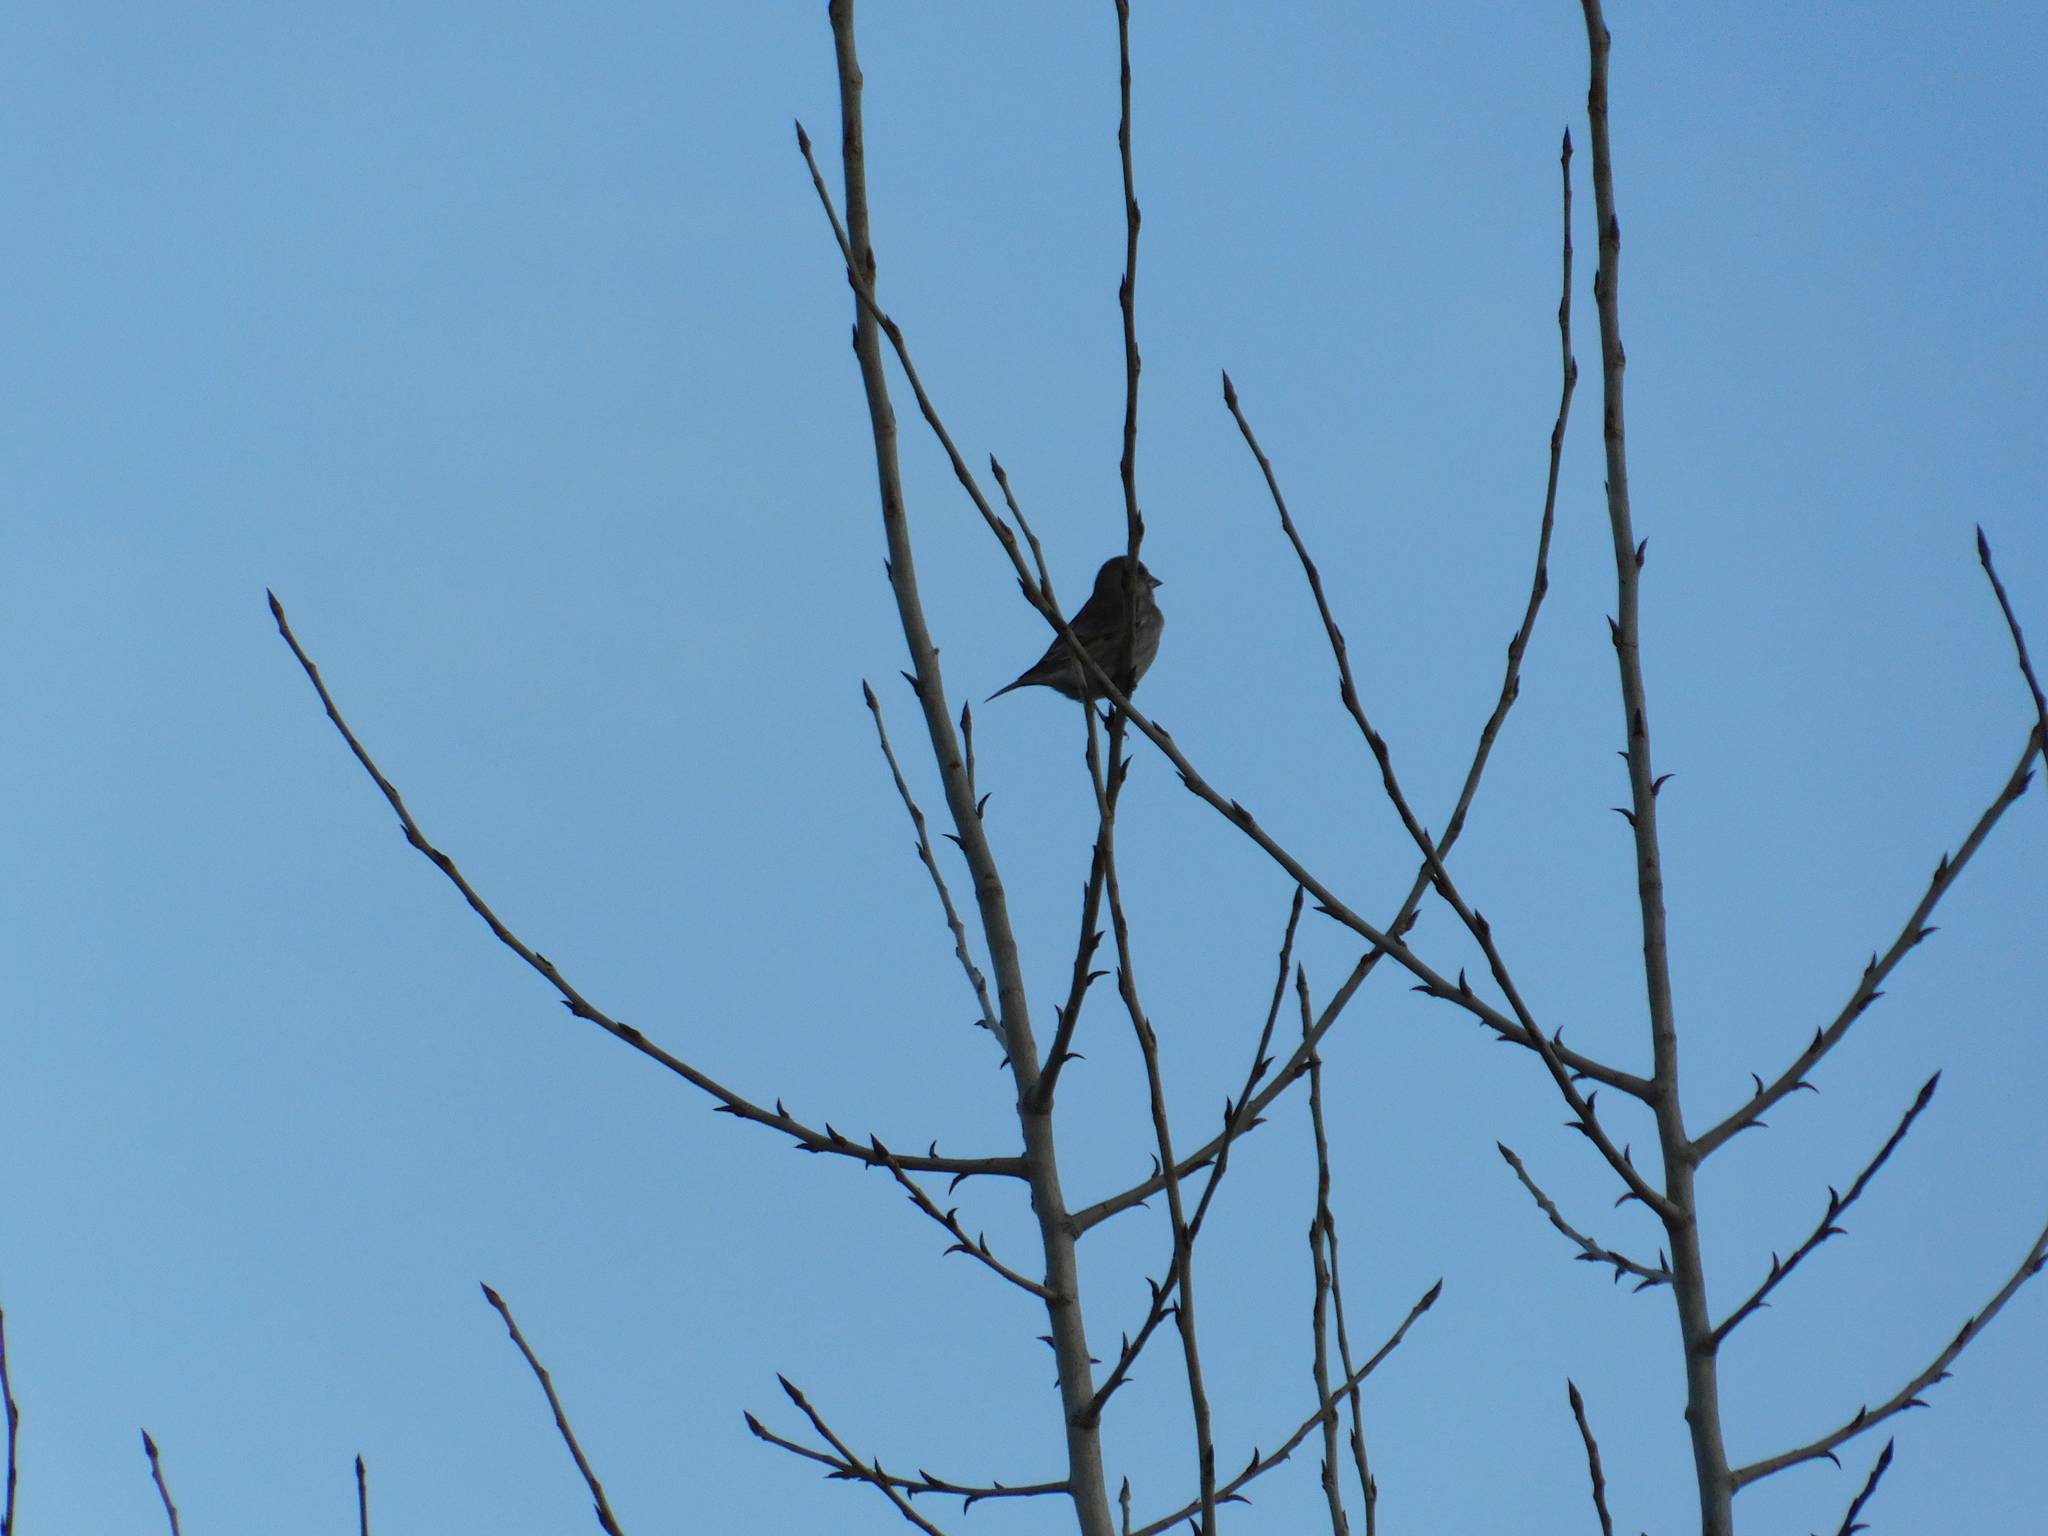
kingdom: Plantae
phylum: Tracheophyta
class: Liliopsida
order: Poales
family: Poaceae
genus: Chloris
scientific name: Chloris chloris
